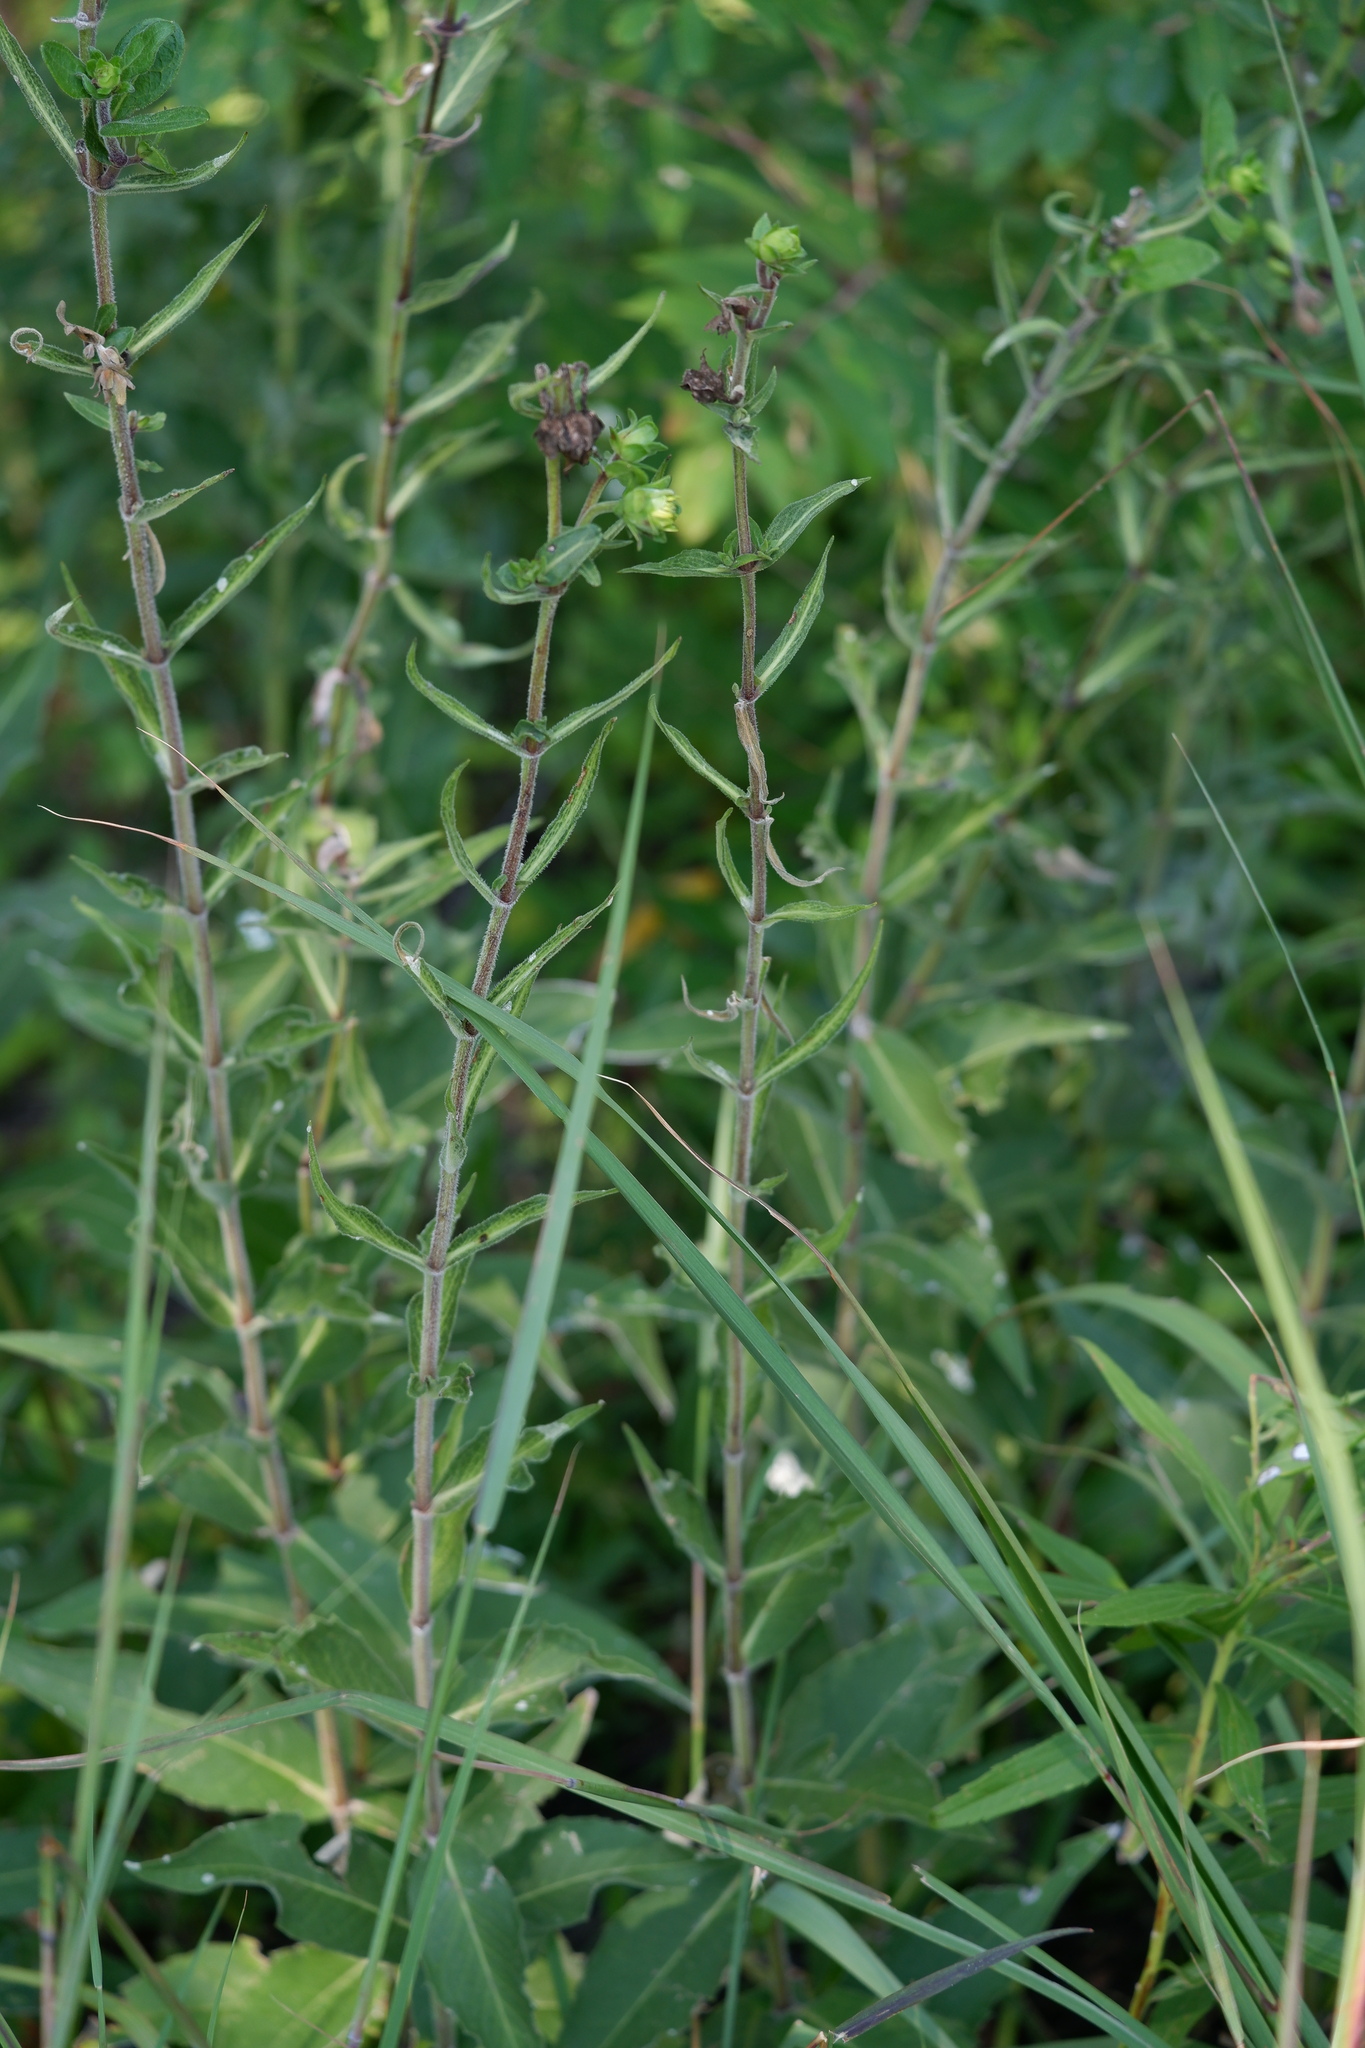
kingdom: Plantae
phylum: Tracheophyta
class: Magnoliopsida
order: Asterales
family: Asteraceae
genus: Silphium
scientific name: Silphium integrifolium
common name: Whole-leaf rosinweed
